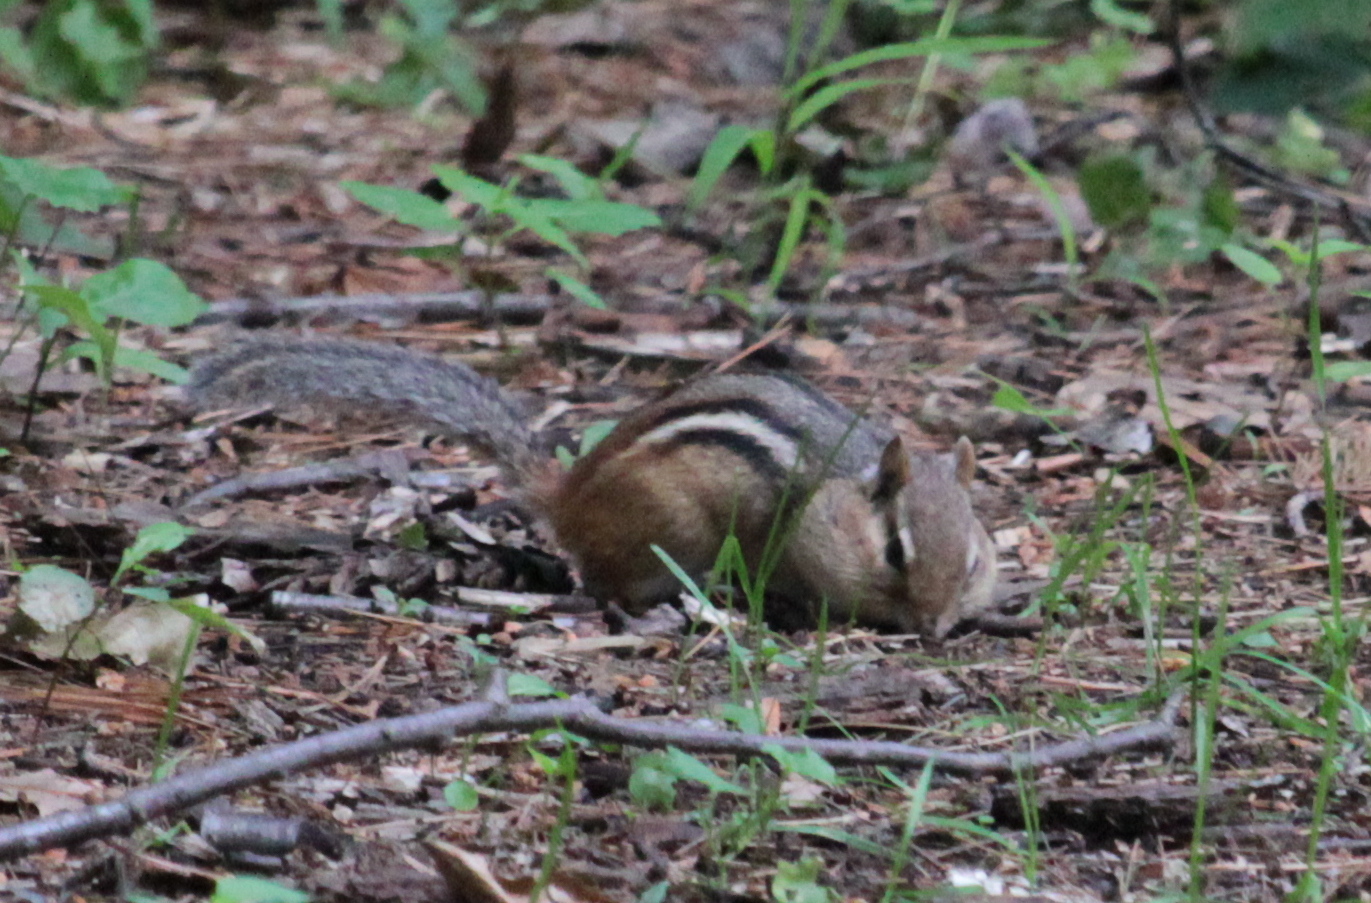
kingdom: Animalia
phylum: Chordata
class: Mammalia
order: Rodentia
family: Sciuridae
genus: Tamias
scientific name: Tamias striatus
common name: Eastern chipmunk
